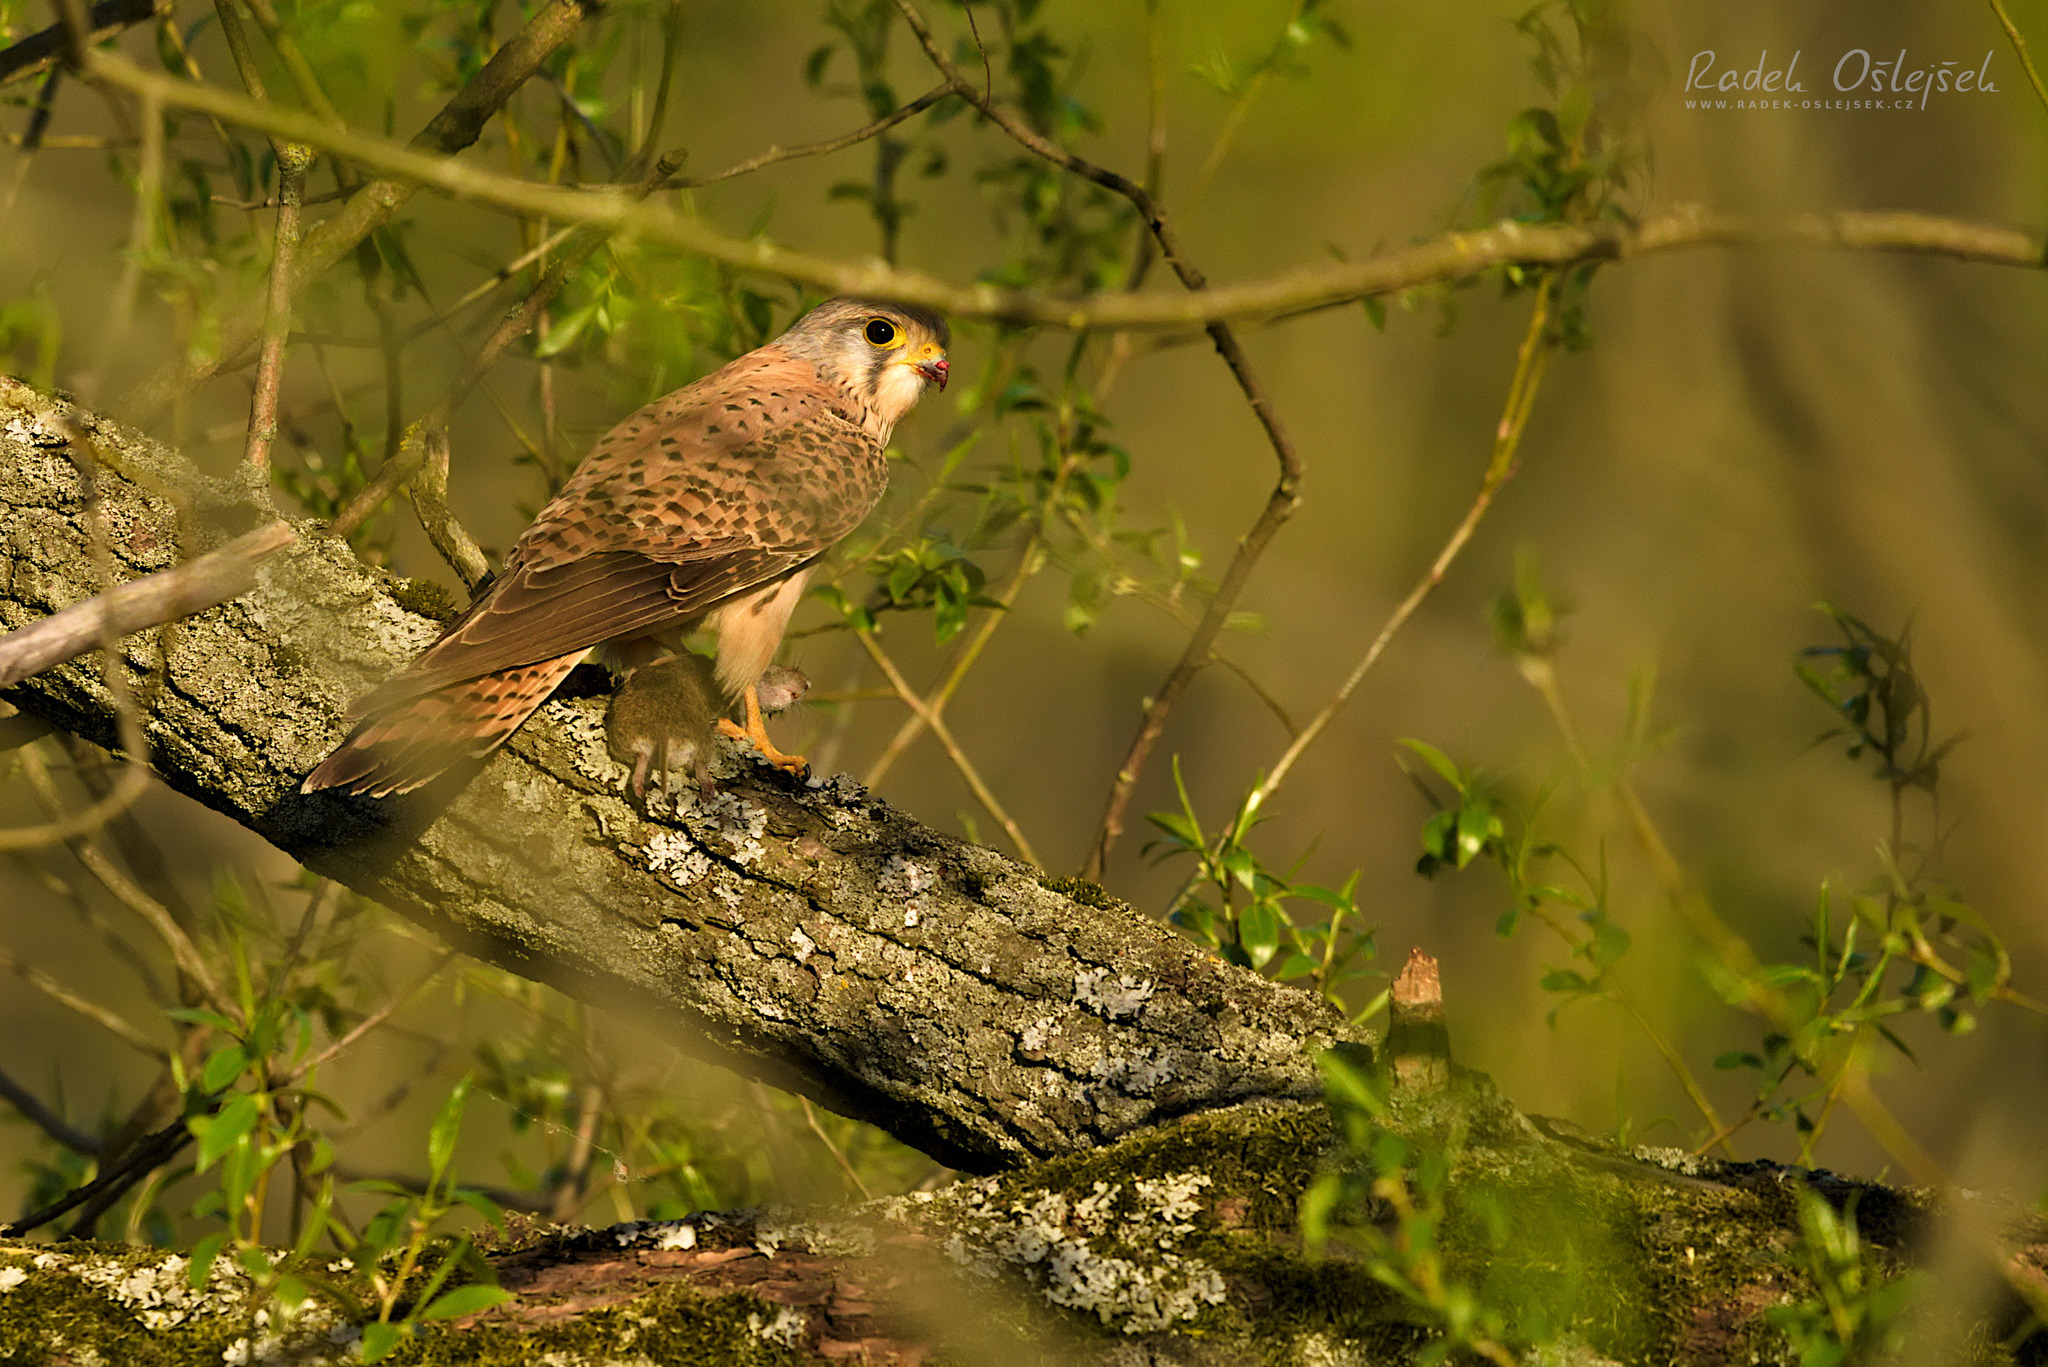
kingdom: Animalia
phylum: Chordata
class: Aves
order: Falconiformes
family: Falconidae
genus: Falco
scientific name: Falco tinnunculus
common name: Common kestrel
